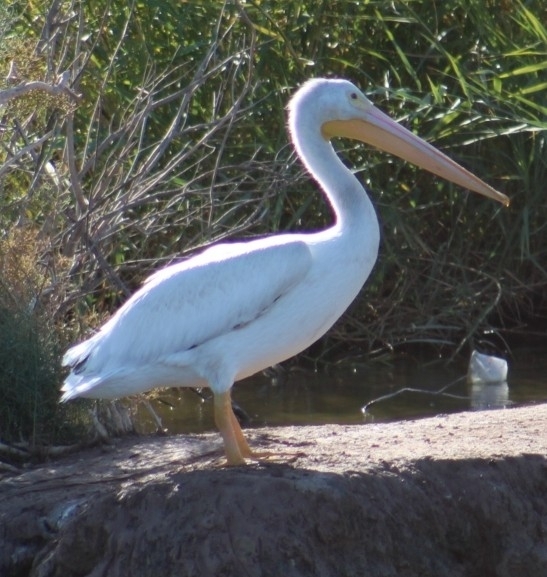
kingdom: Animalia
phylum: Chordata
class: Aves
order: Pelecaniformes
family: Pelecanidae
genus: Pelecanus
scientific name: Pelecanus erythrorhynchos
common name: American white pelican
